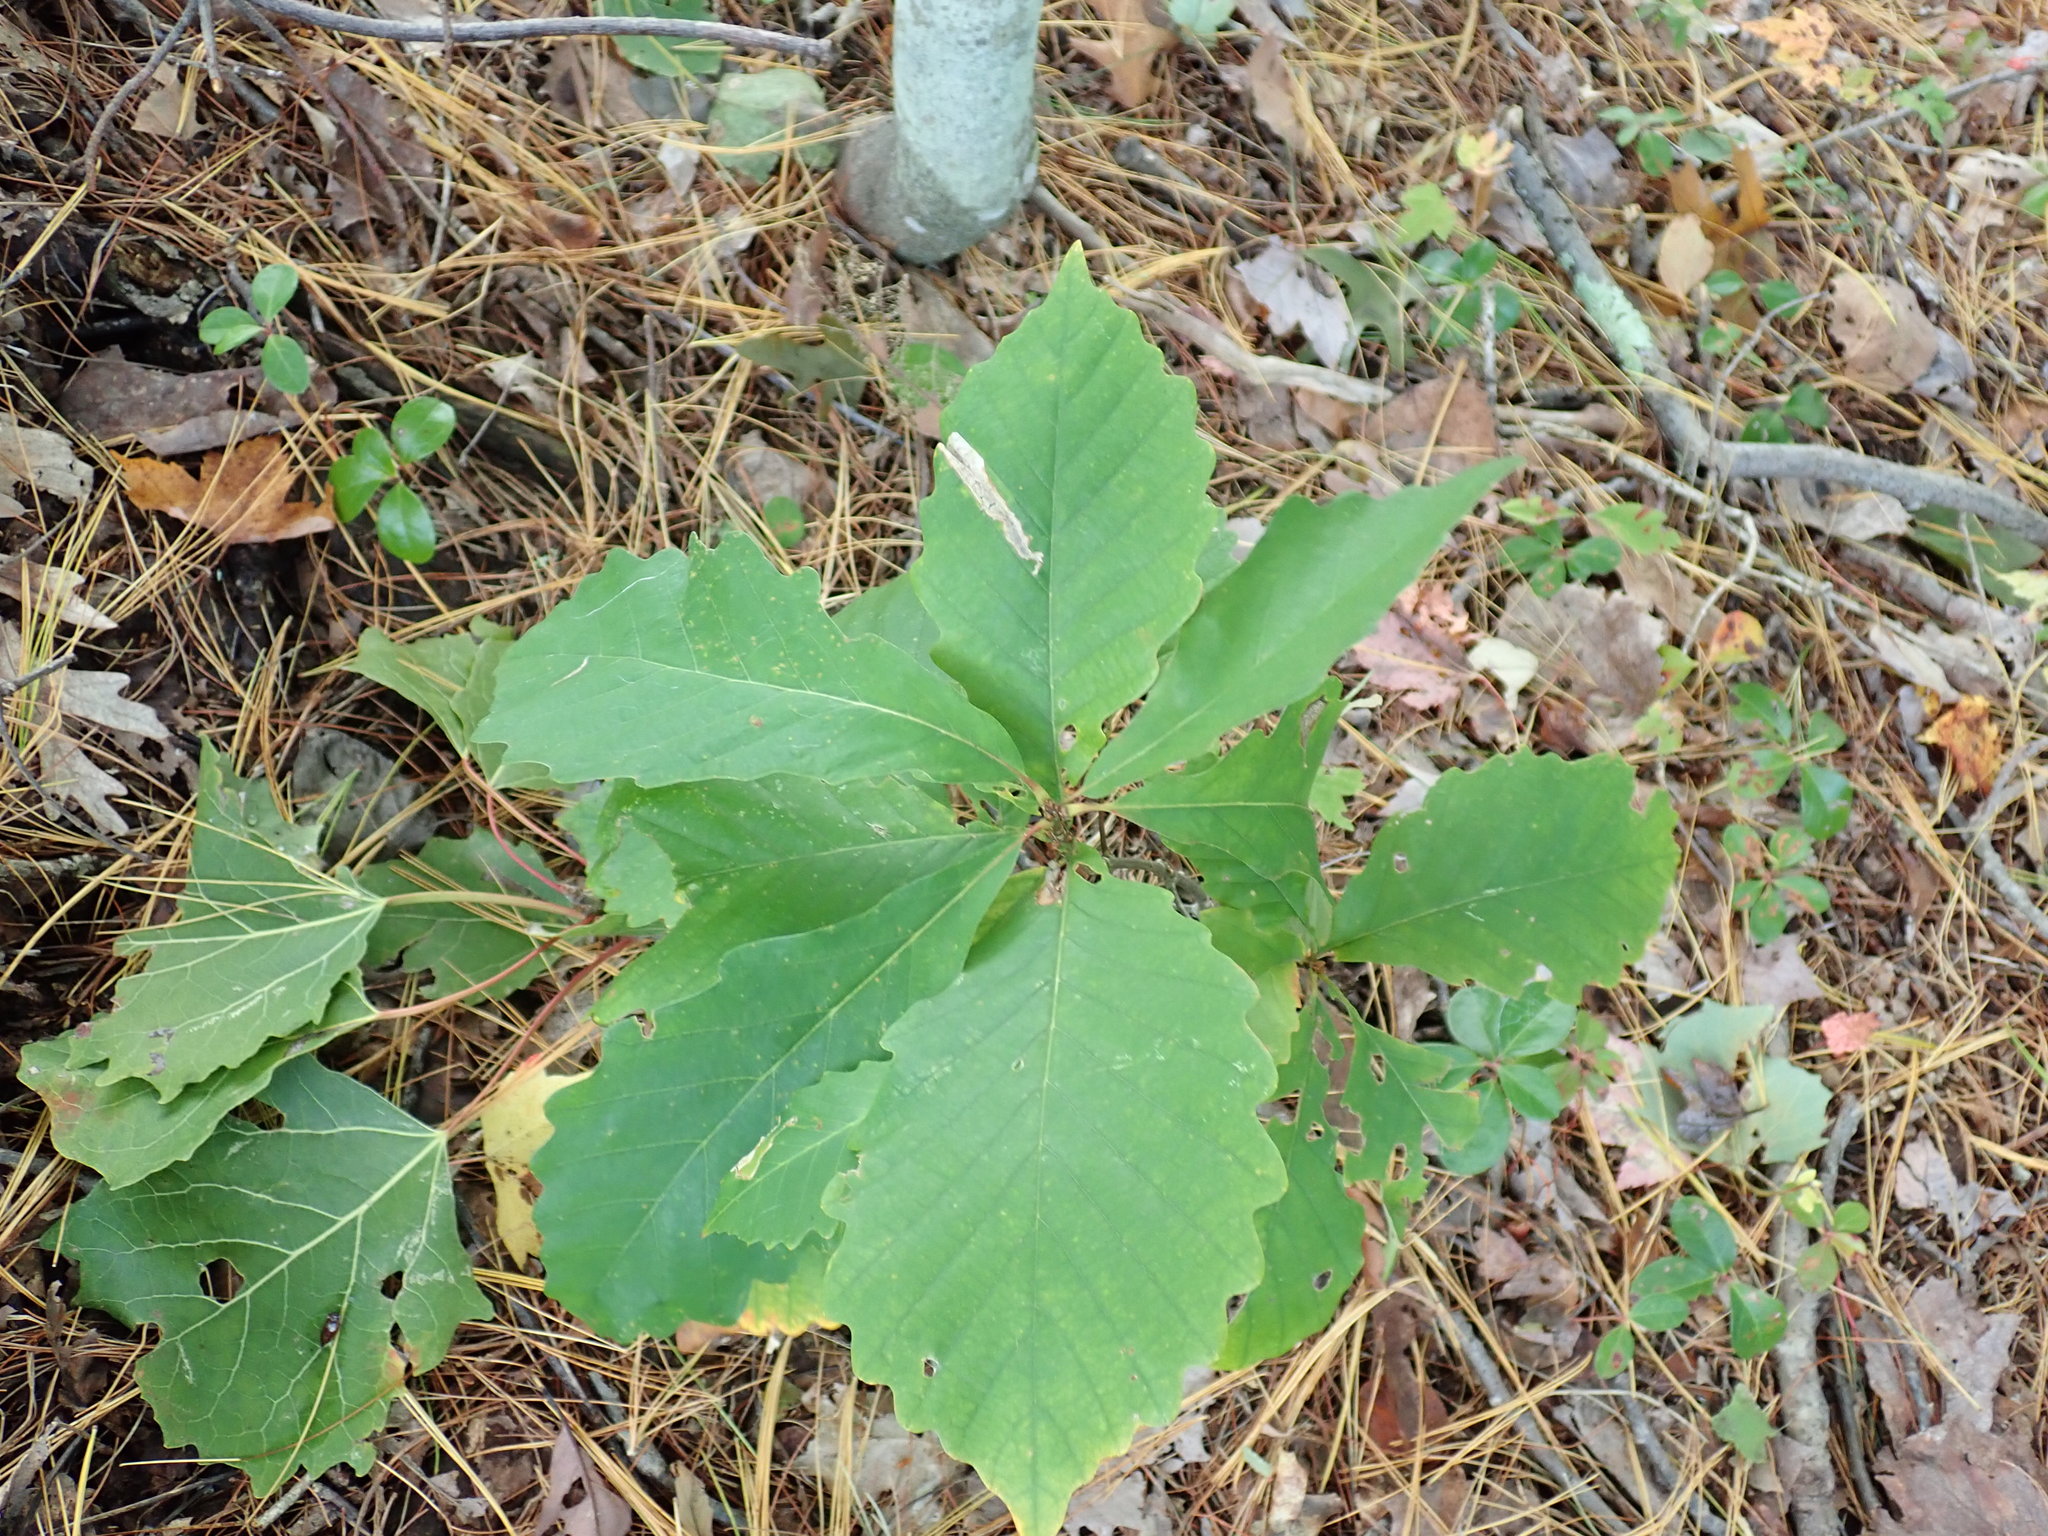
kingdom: Plantae
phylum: Tracheophyta
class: Magnoliopsida
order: Fagales
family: Fagaceae
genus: Quercus
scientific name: Quercus montana
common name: Chestnut oak
